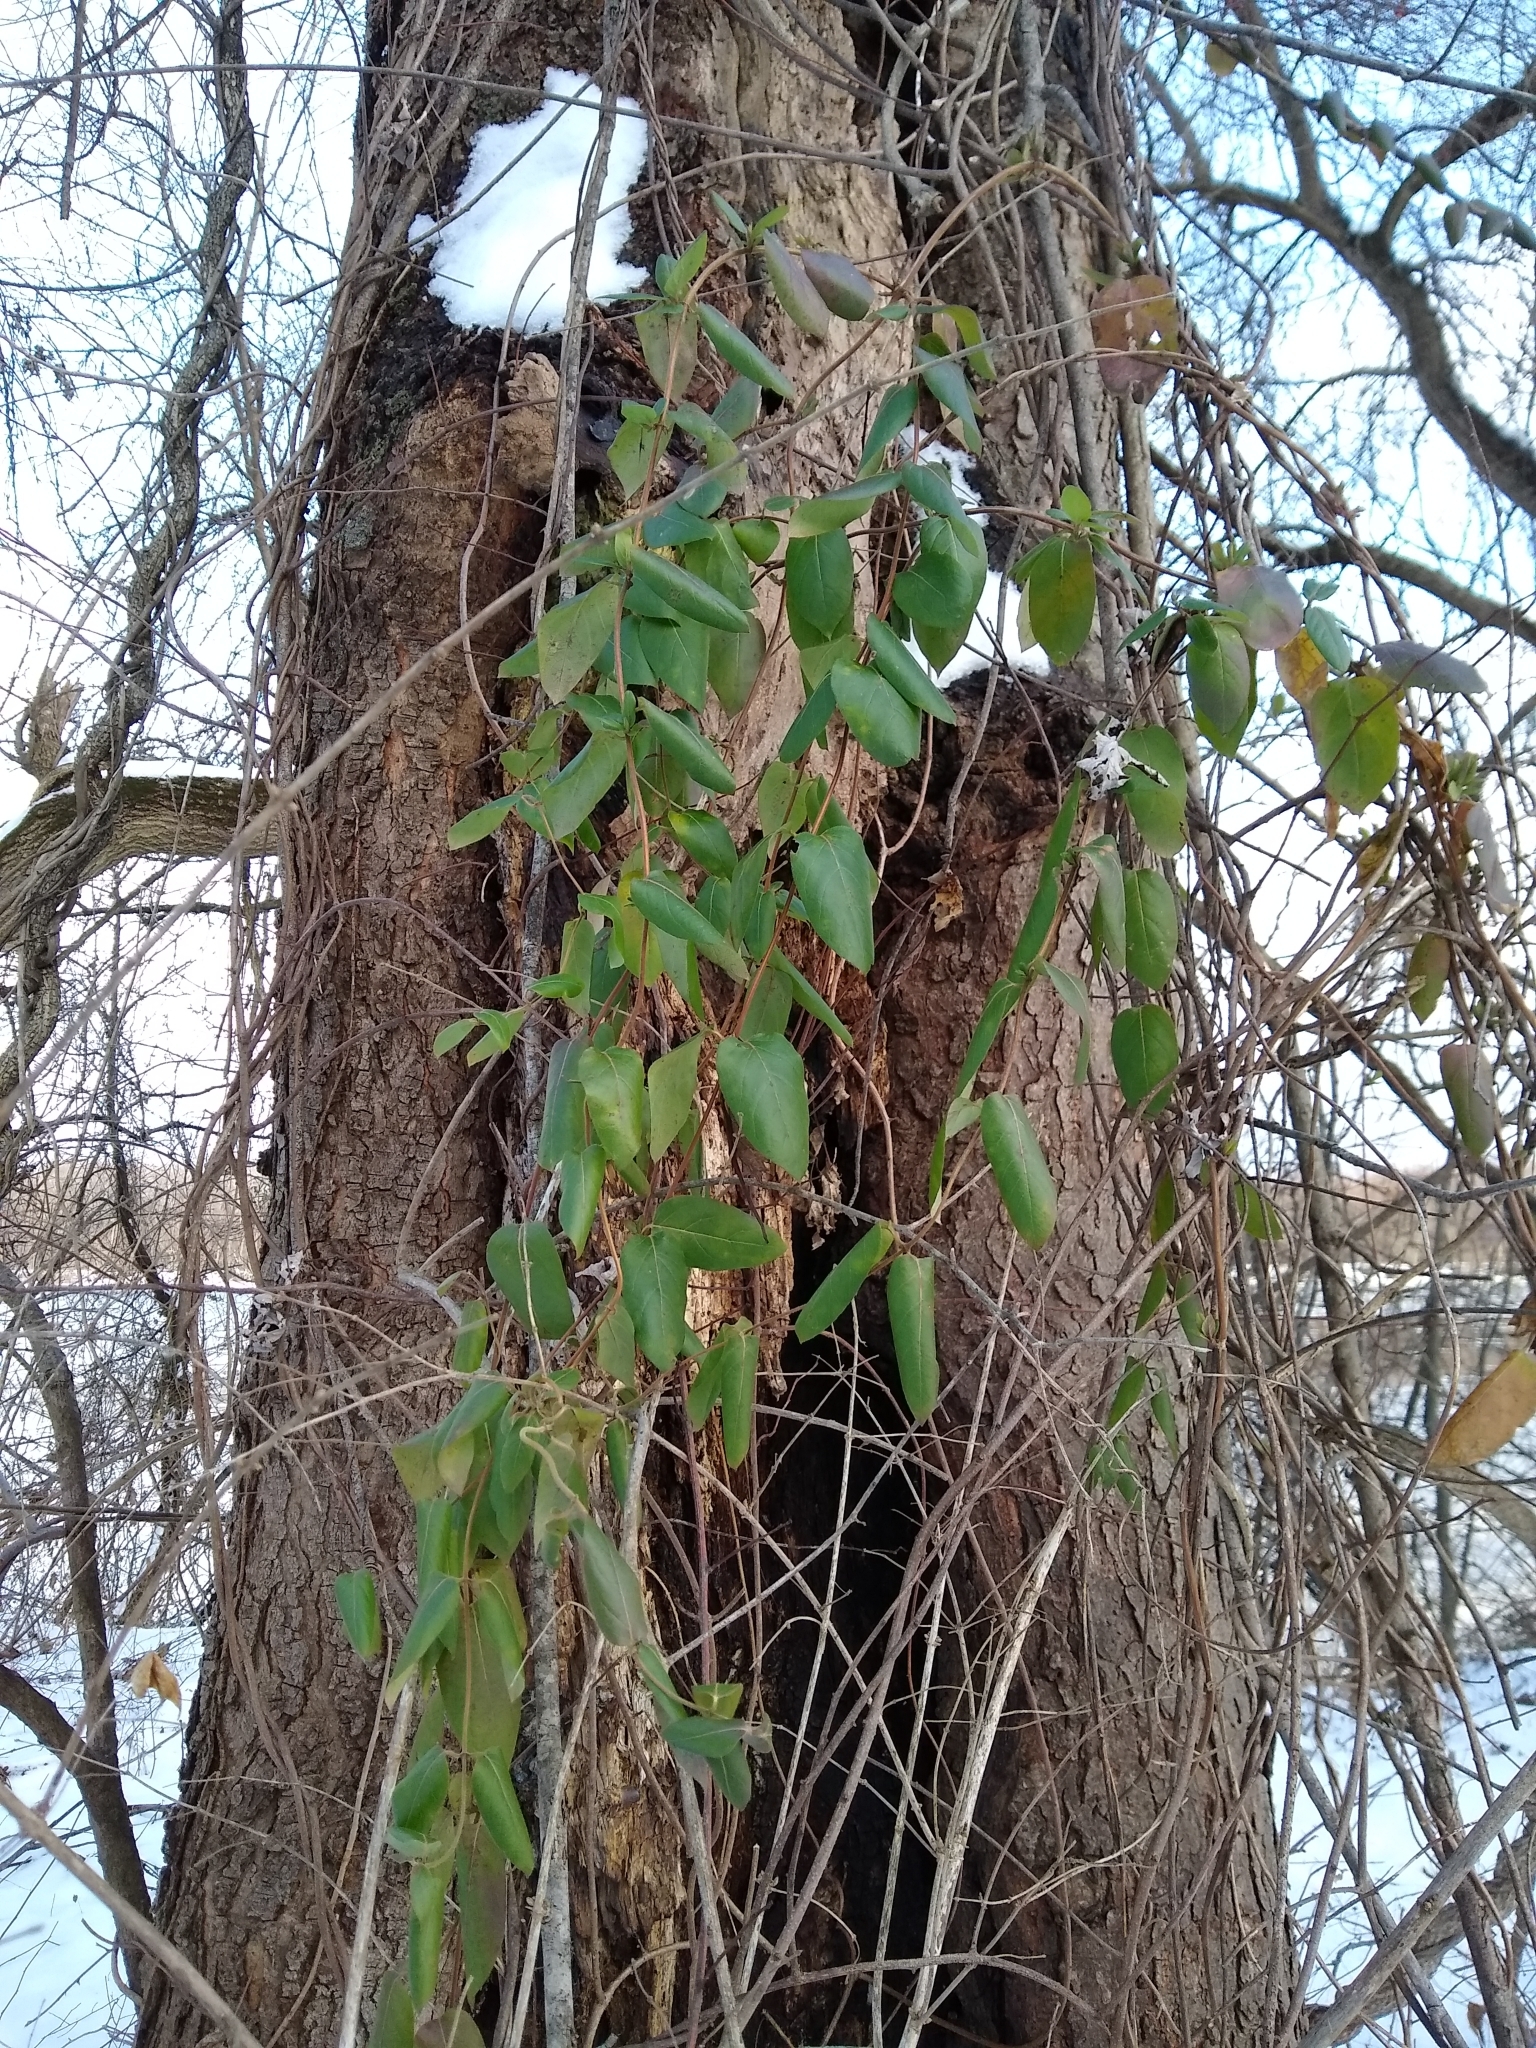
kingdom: Plantae
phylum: Tracheophyta
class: Magnoliopsida
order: Dipsacales
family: Caprifoliaceae
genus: Lonicera
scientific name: Lonicera japonica
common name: Japanese honeysuckle
